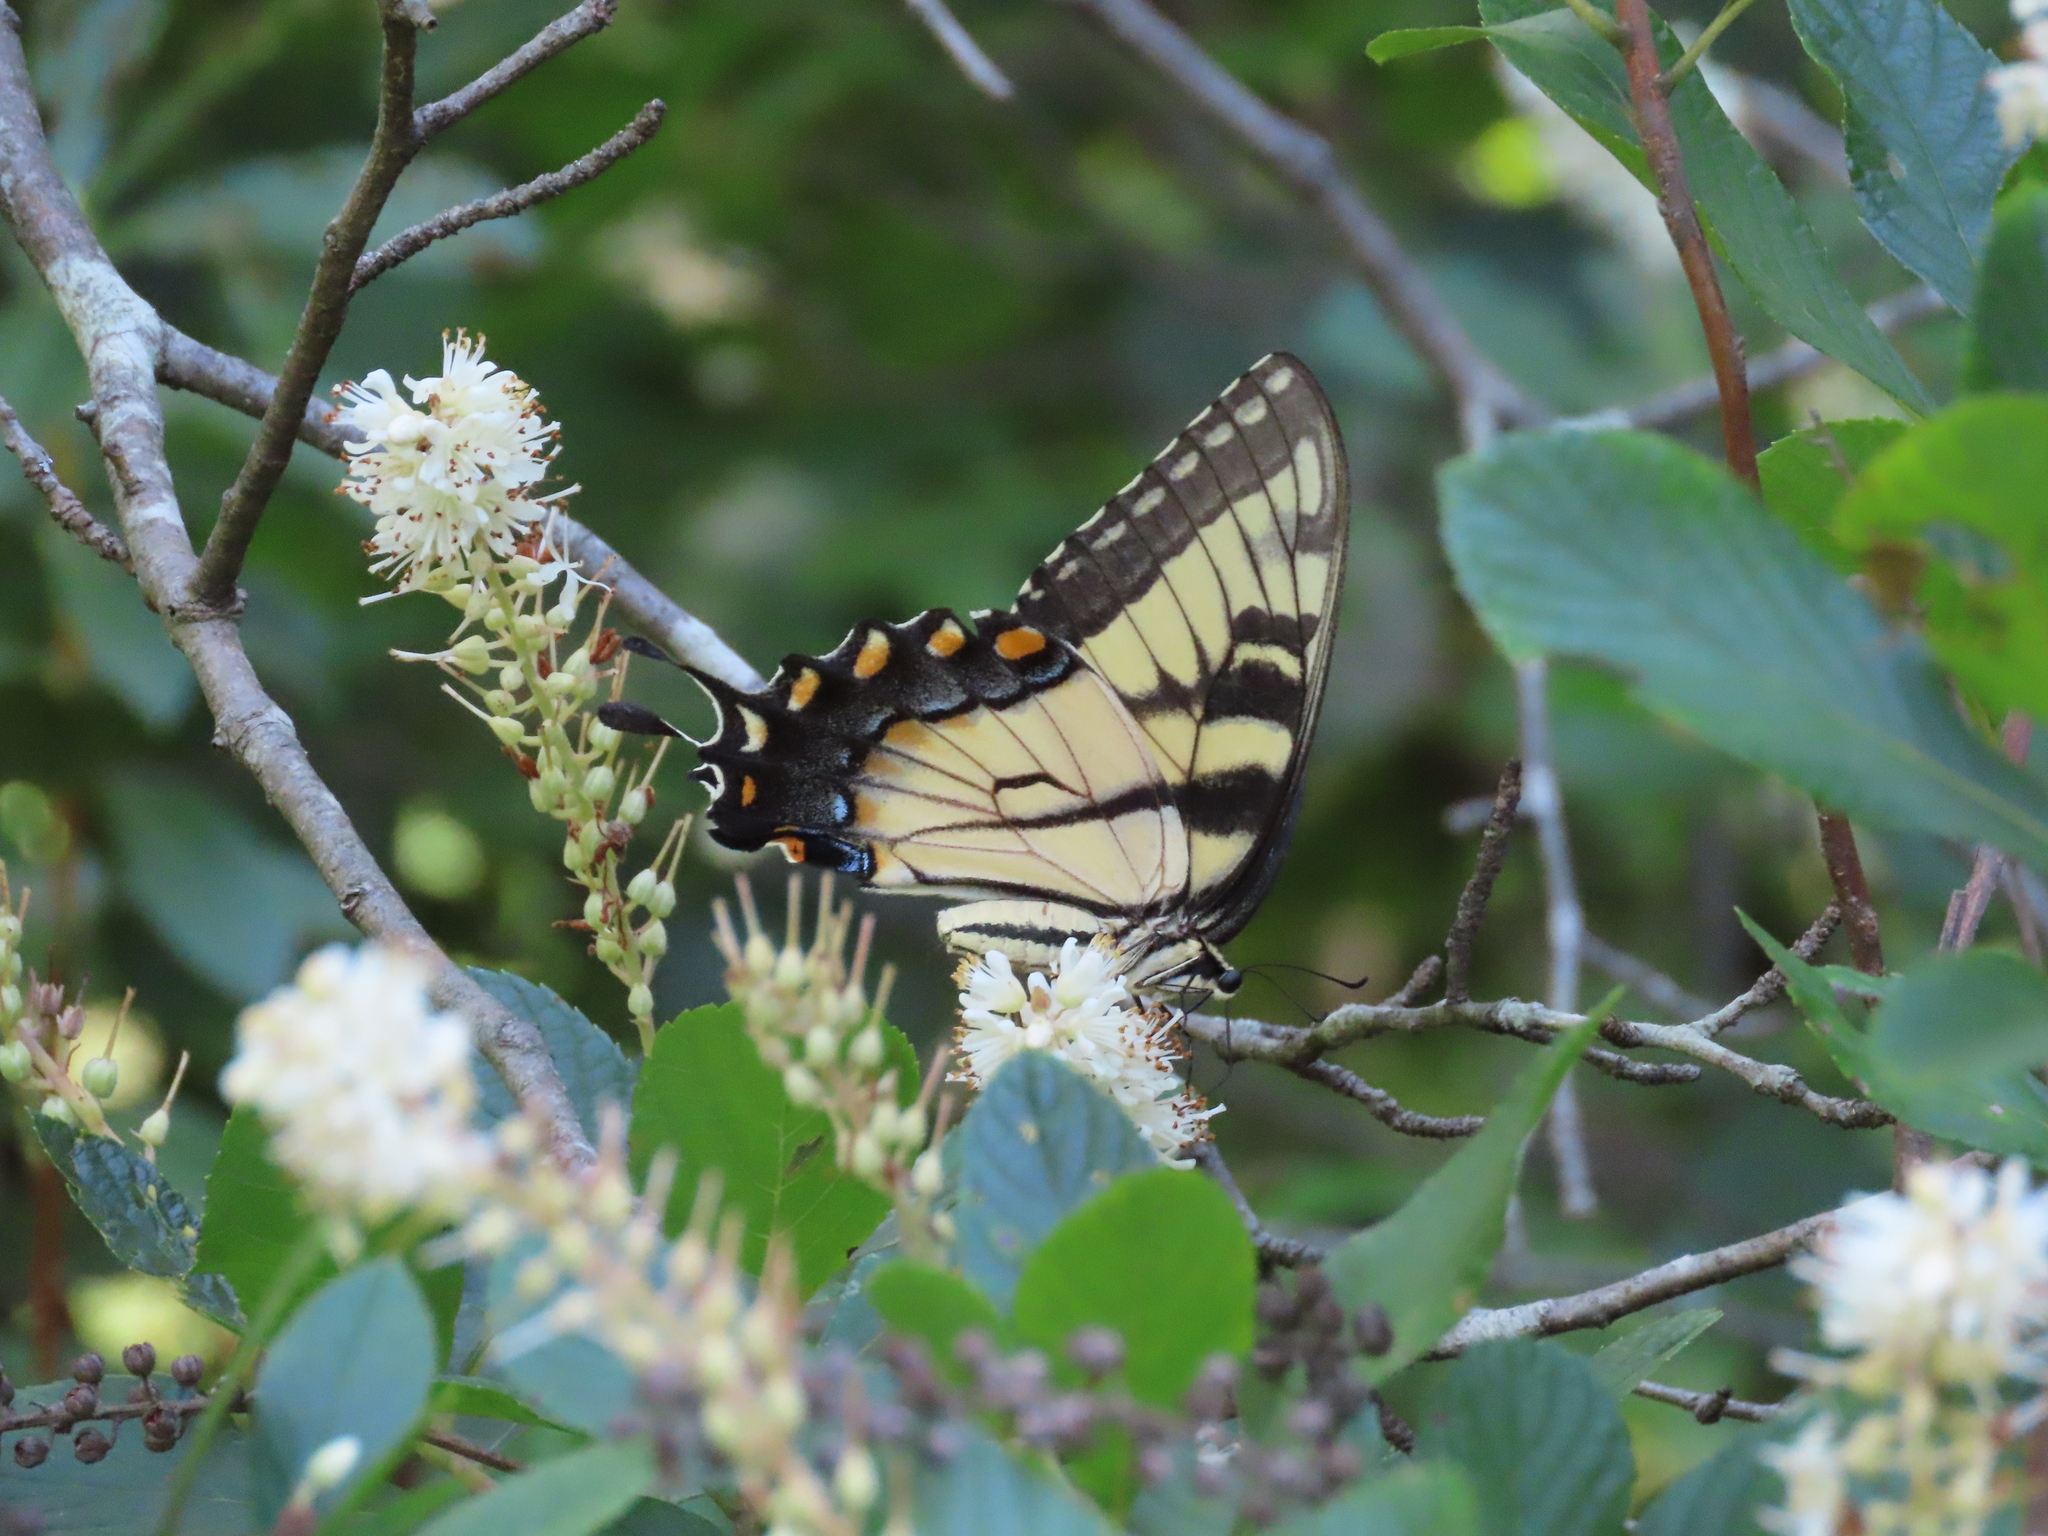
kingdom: Animalia
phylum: Arthropoda
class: Insecta
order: Lepidoptera
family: Papilionidae
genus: Papilio
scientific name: Papilio glaucus
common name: Tiger swallowtail
